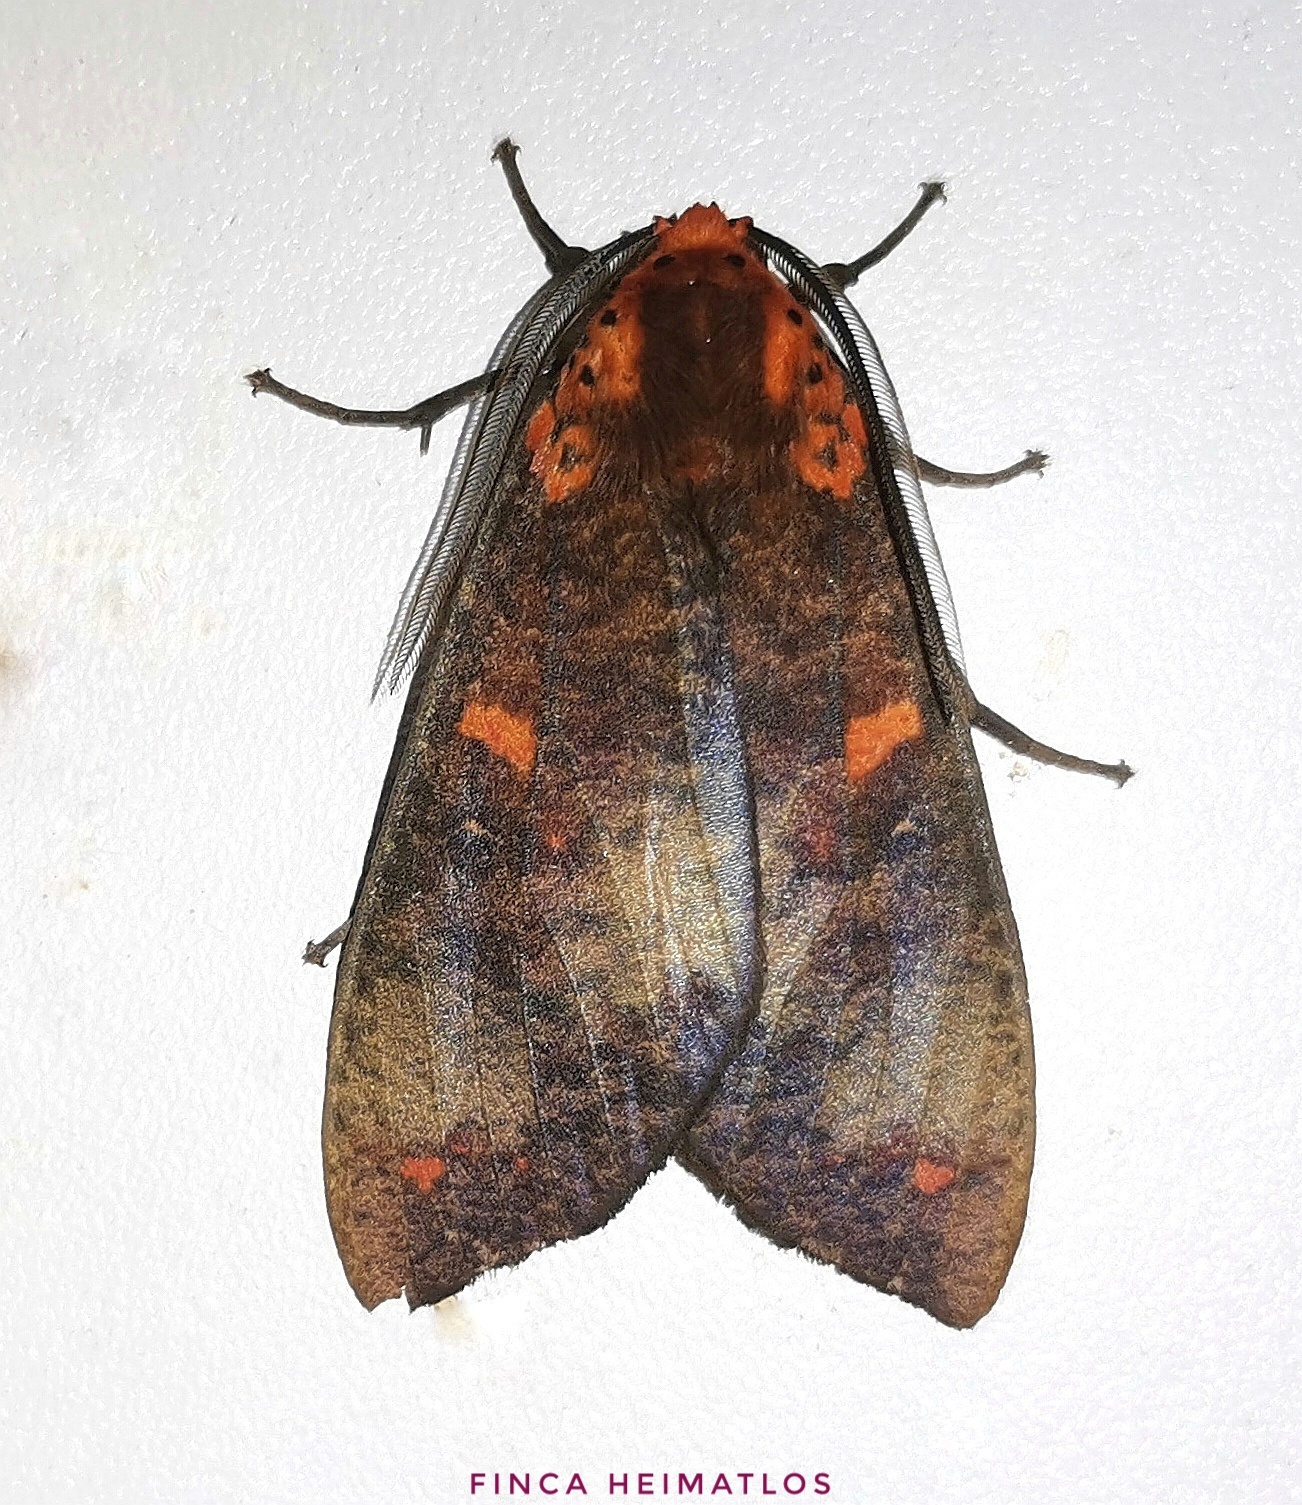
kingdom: Animalia
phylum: Arthropoda
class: Insecta
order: Lepidoptera
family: Erebidae
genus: Ammalo
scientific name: Ammalo helops
